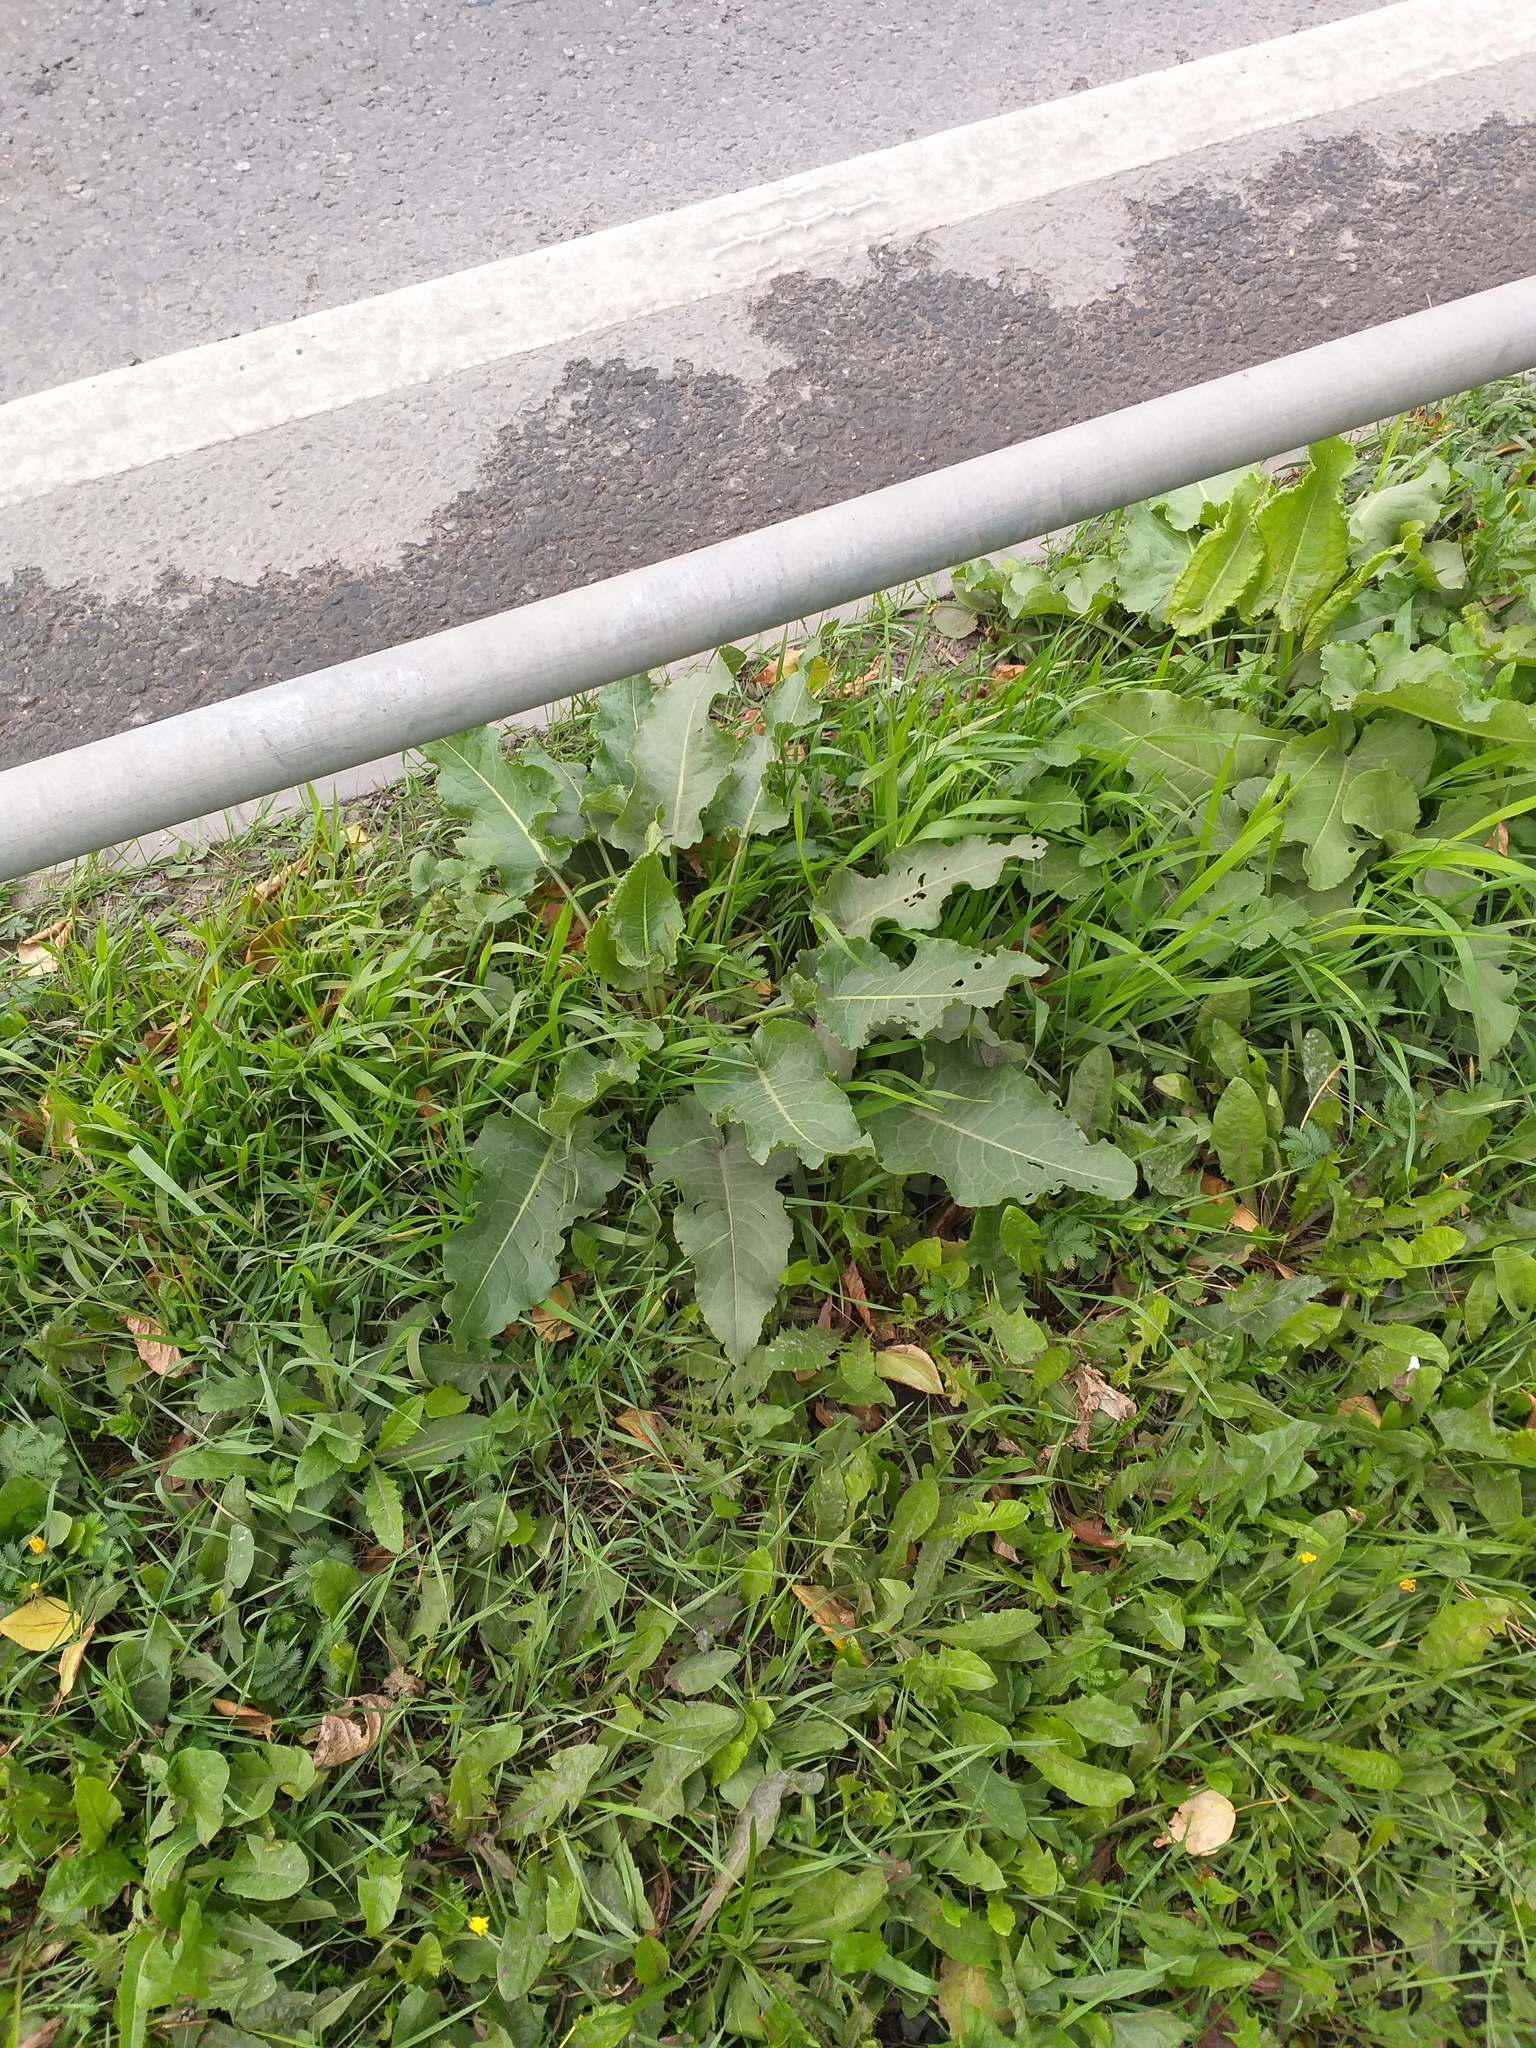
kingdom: Plantae
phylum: Tracheophyta
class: Magnoliopsida
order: Caryophyllales
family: Polygonaceae
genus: Rumex
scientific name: Rumex confertus
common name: Russian dock
